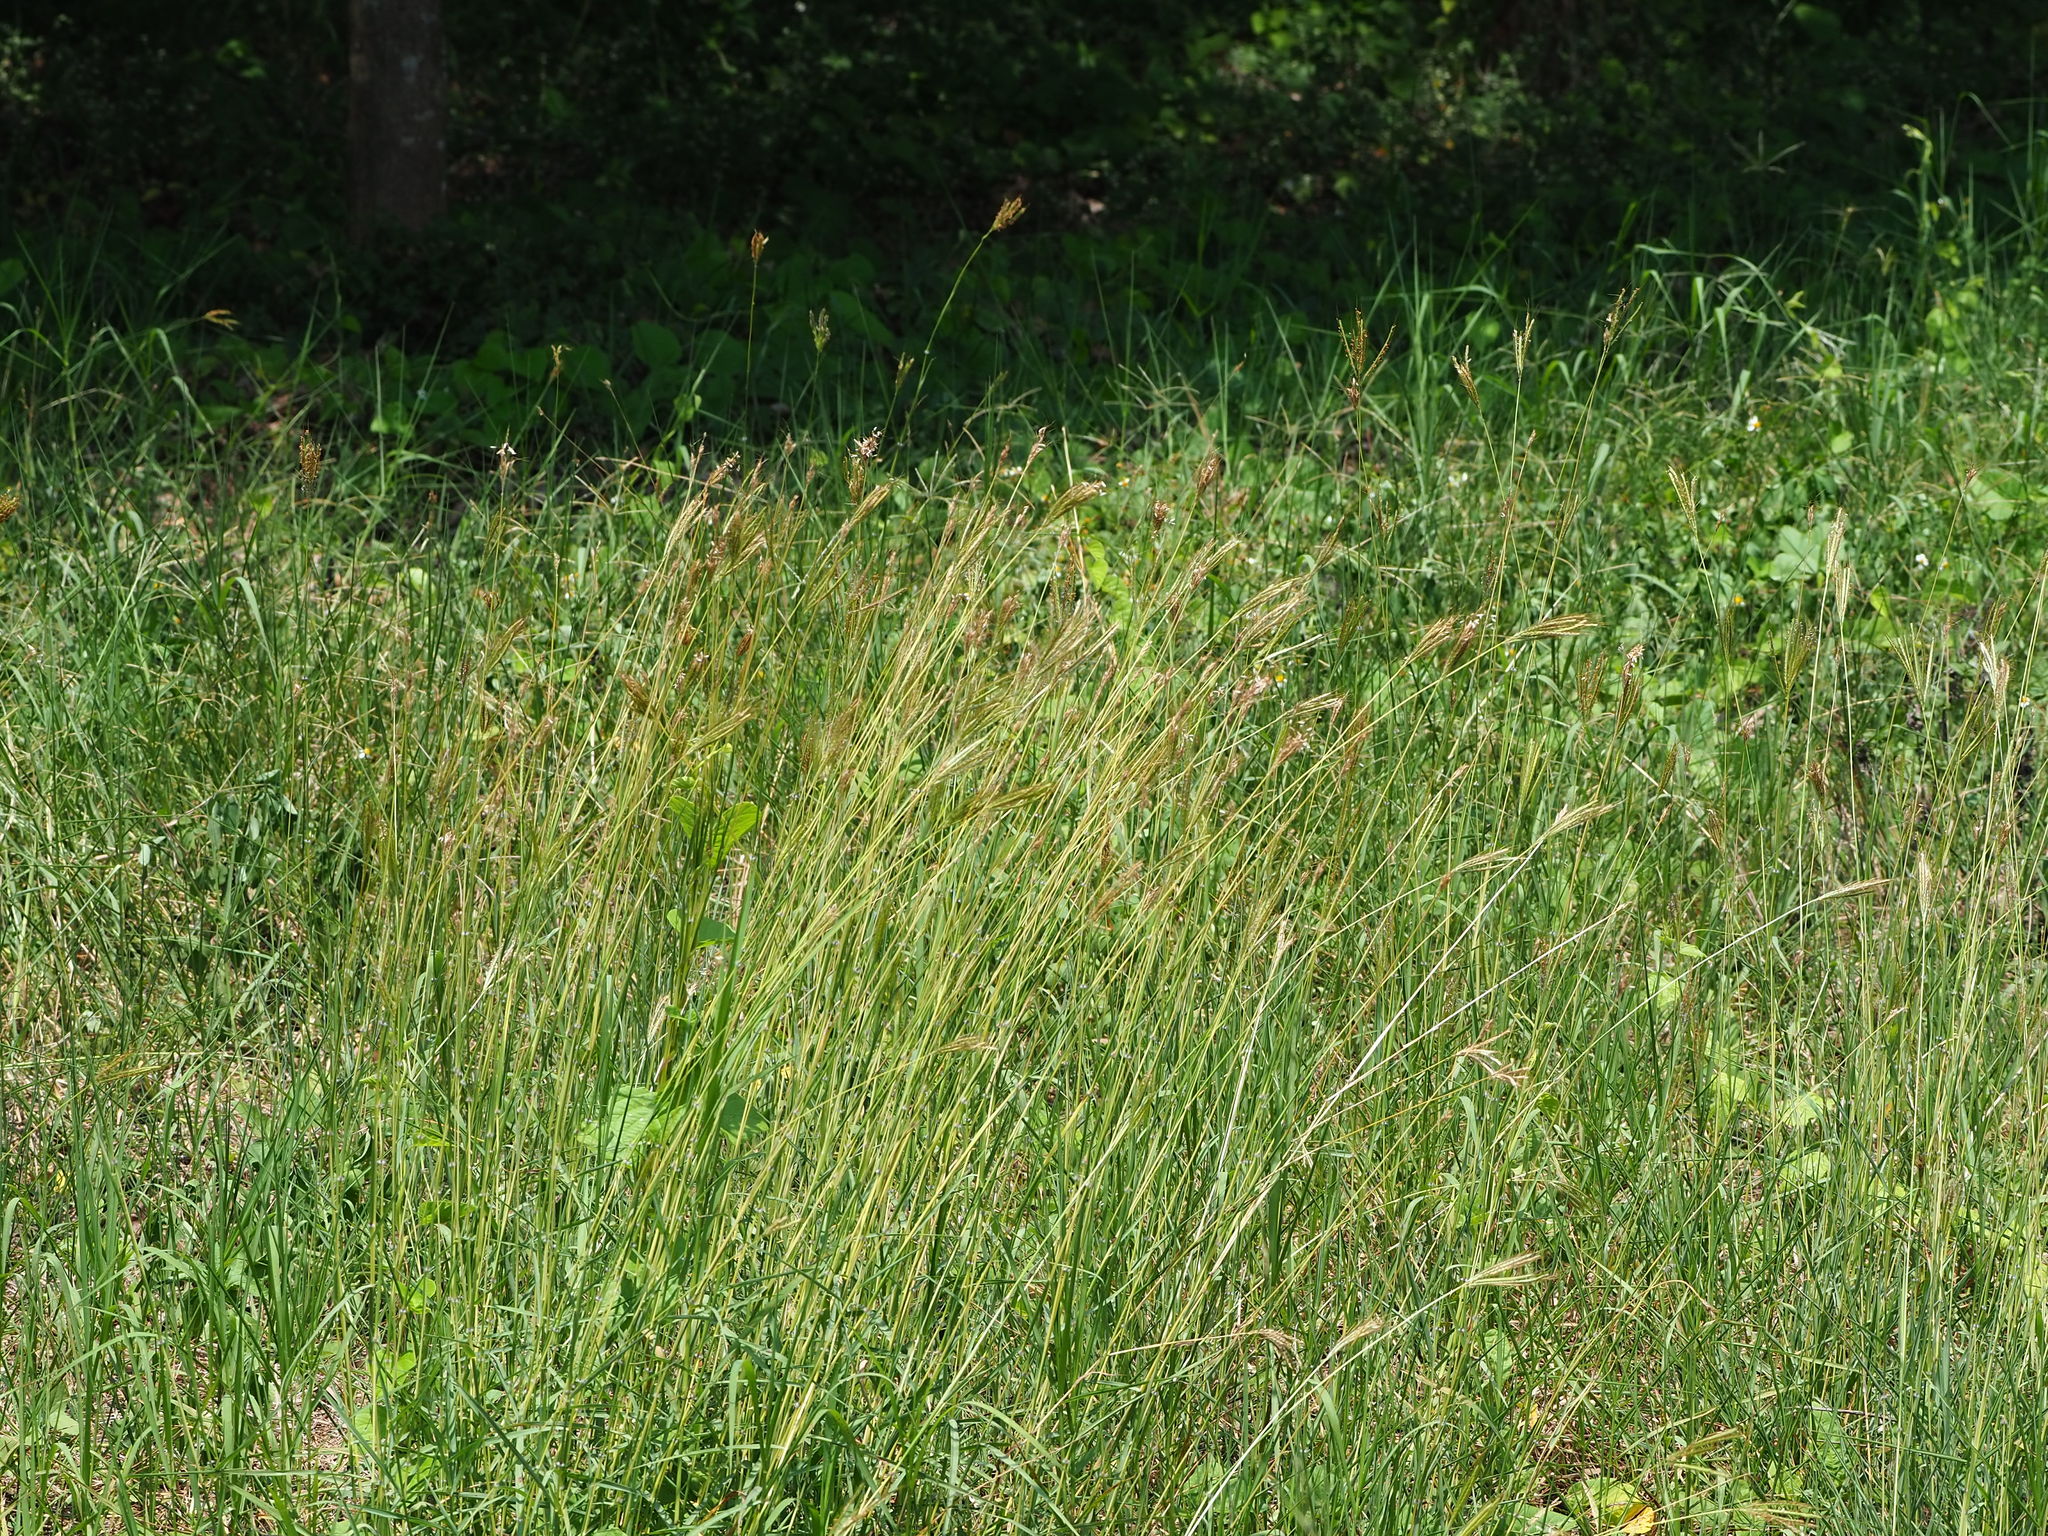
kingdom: Plantae
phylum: Tracheophyta
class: Liliopsida
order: Poales
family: Poaceae
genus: Dichanthium
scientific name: Dichanthium annulatum
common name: Kleberg's bluestem
